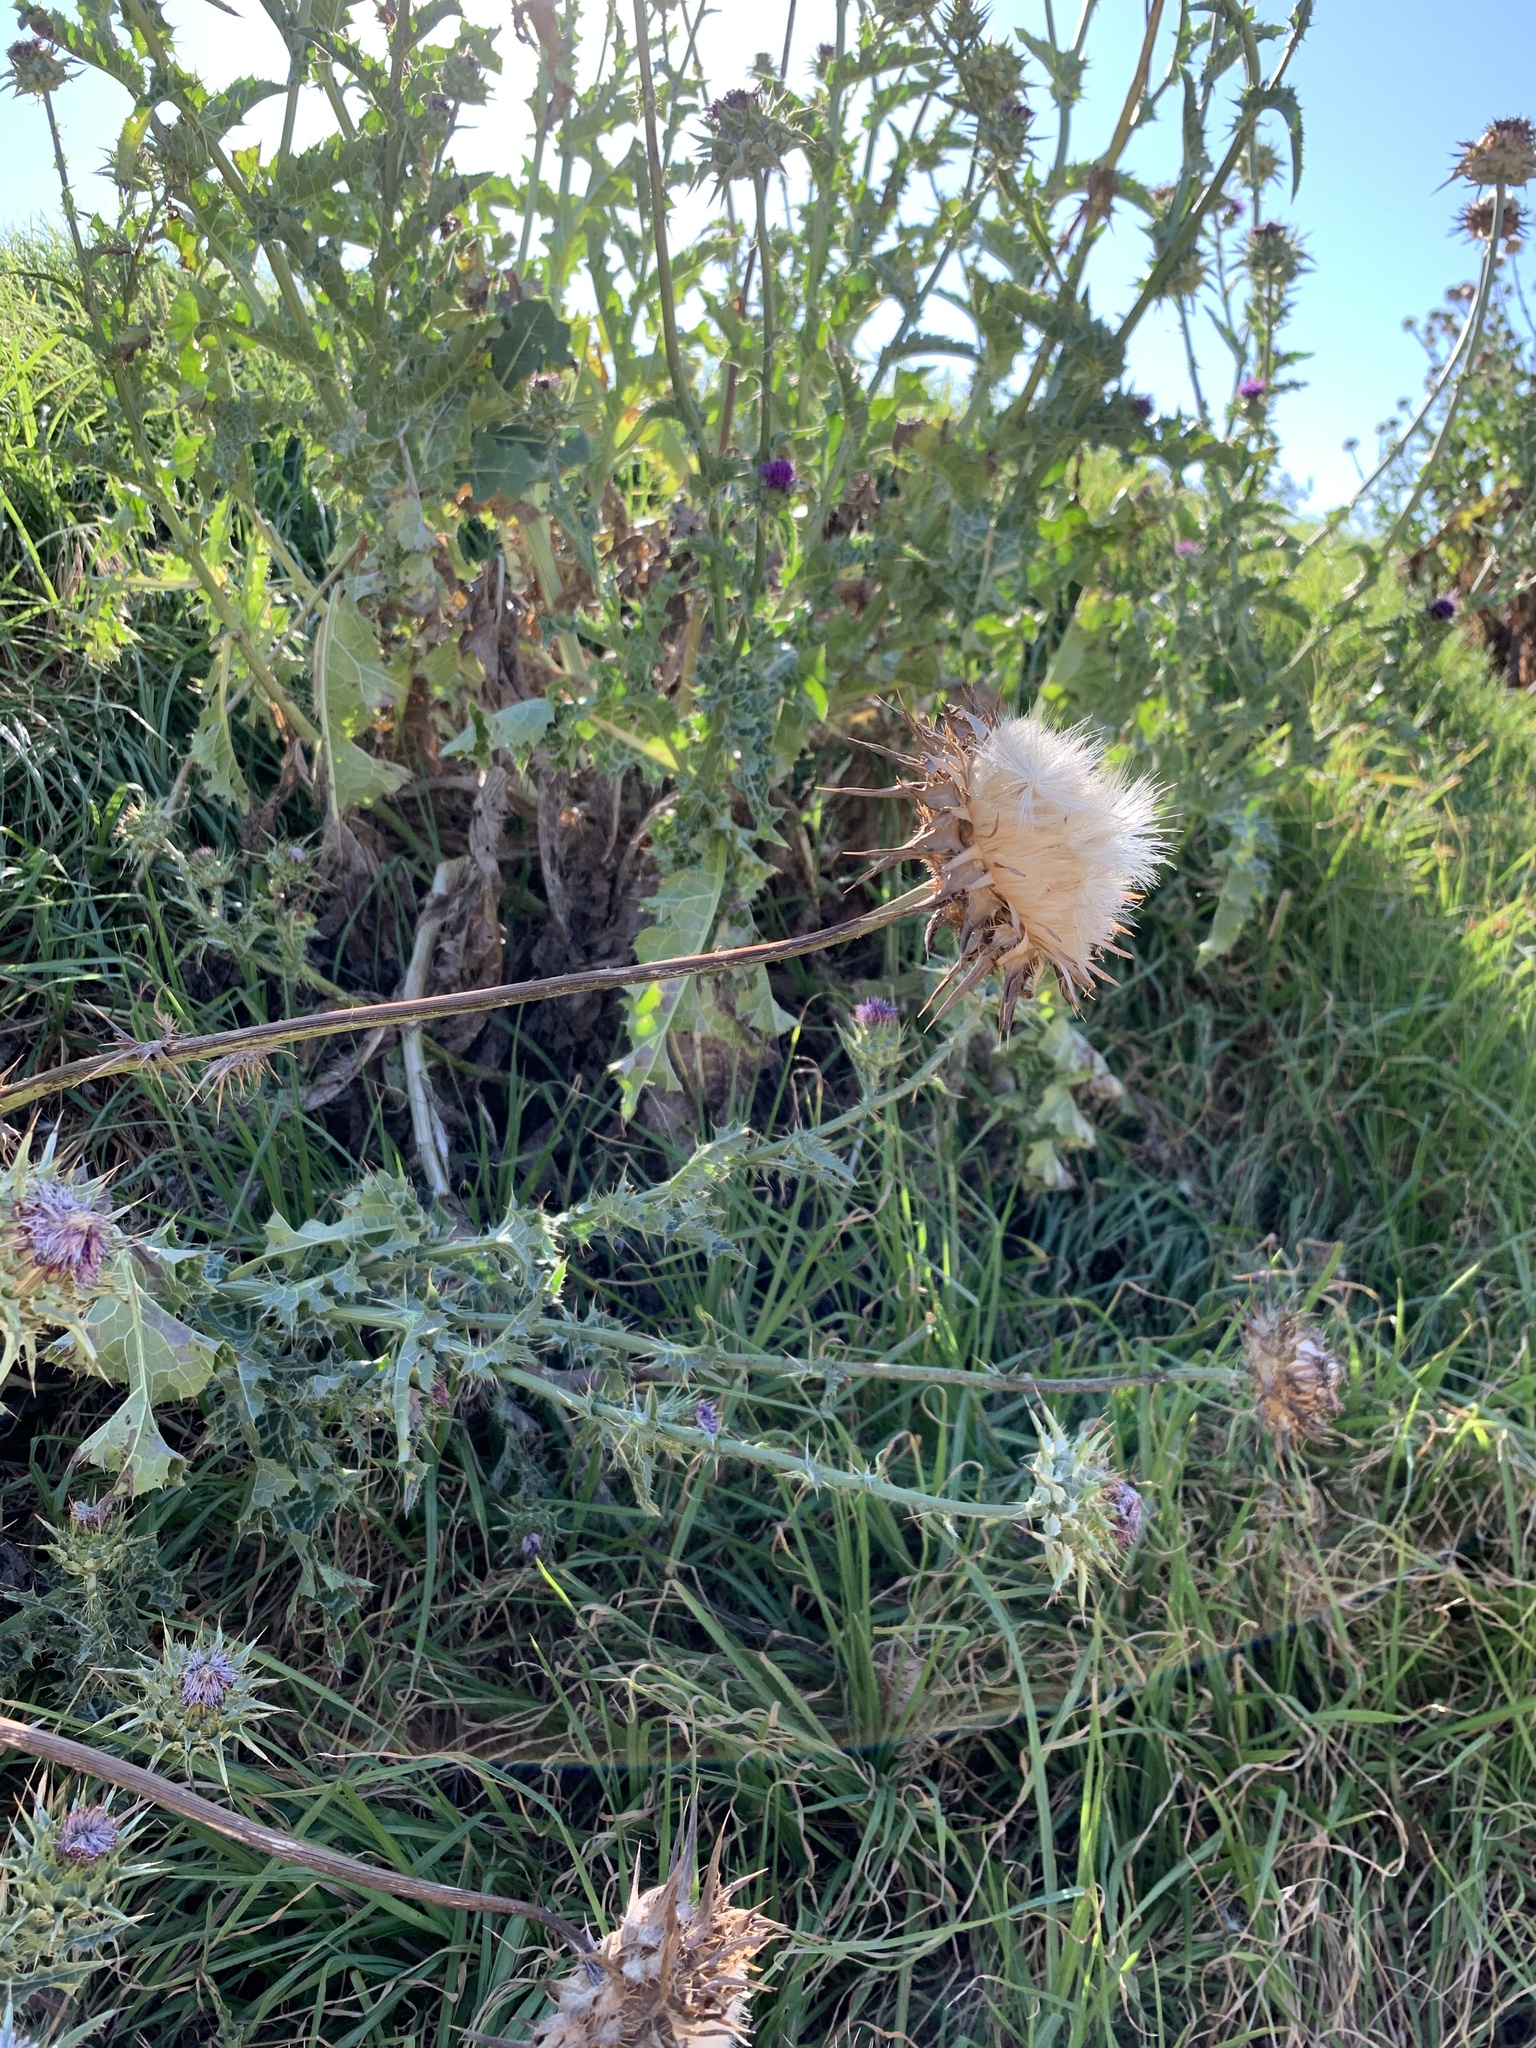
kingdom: Plantae
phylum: Tracheophyta
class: Magnoliopsida
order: Asterales
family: Asteraceae
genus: Silybum
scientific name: Silybum marianum
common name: Milk thistle
